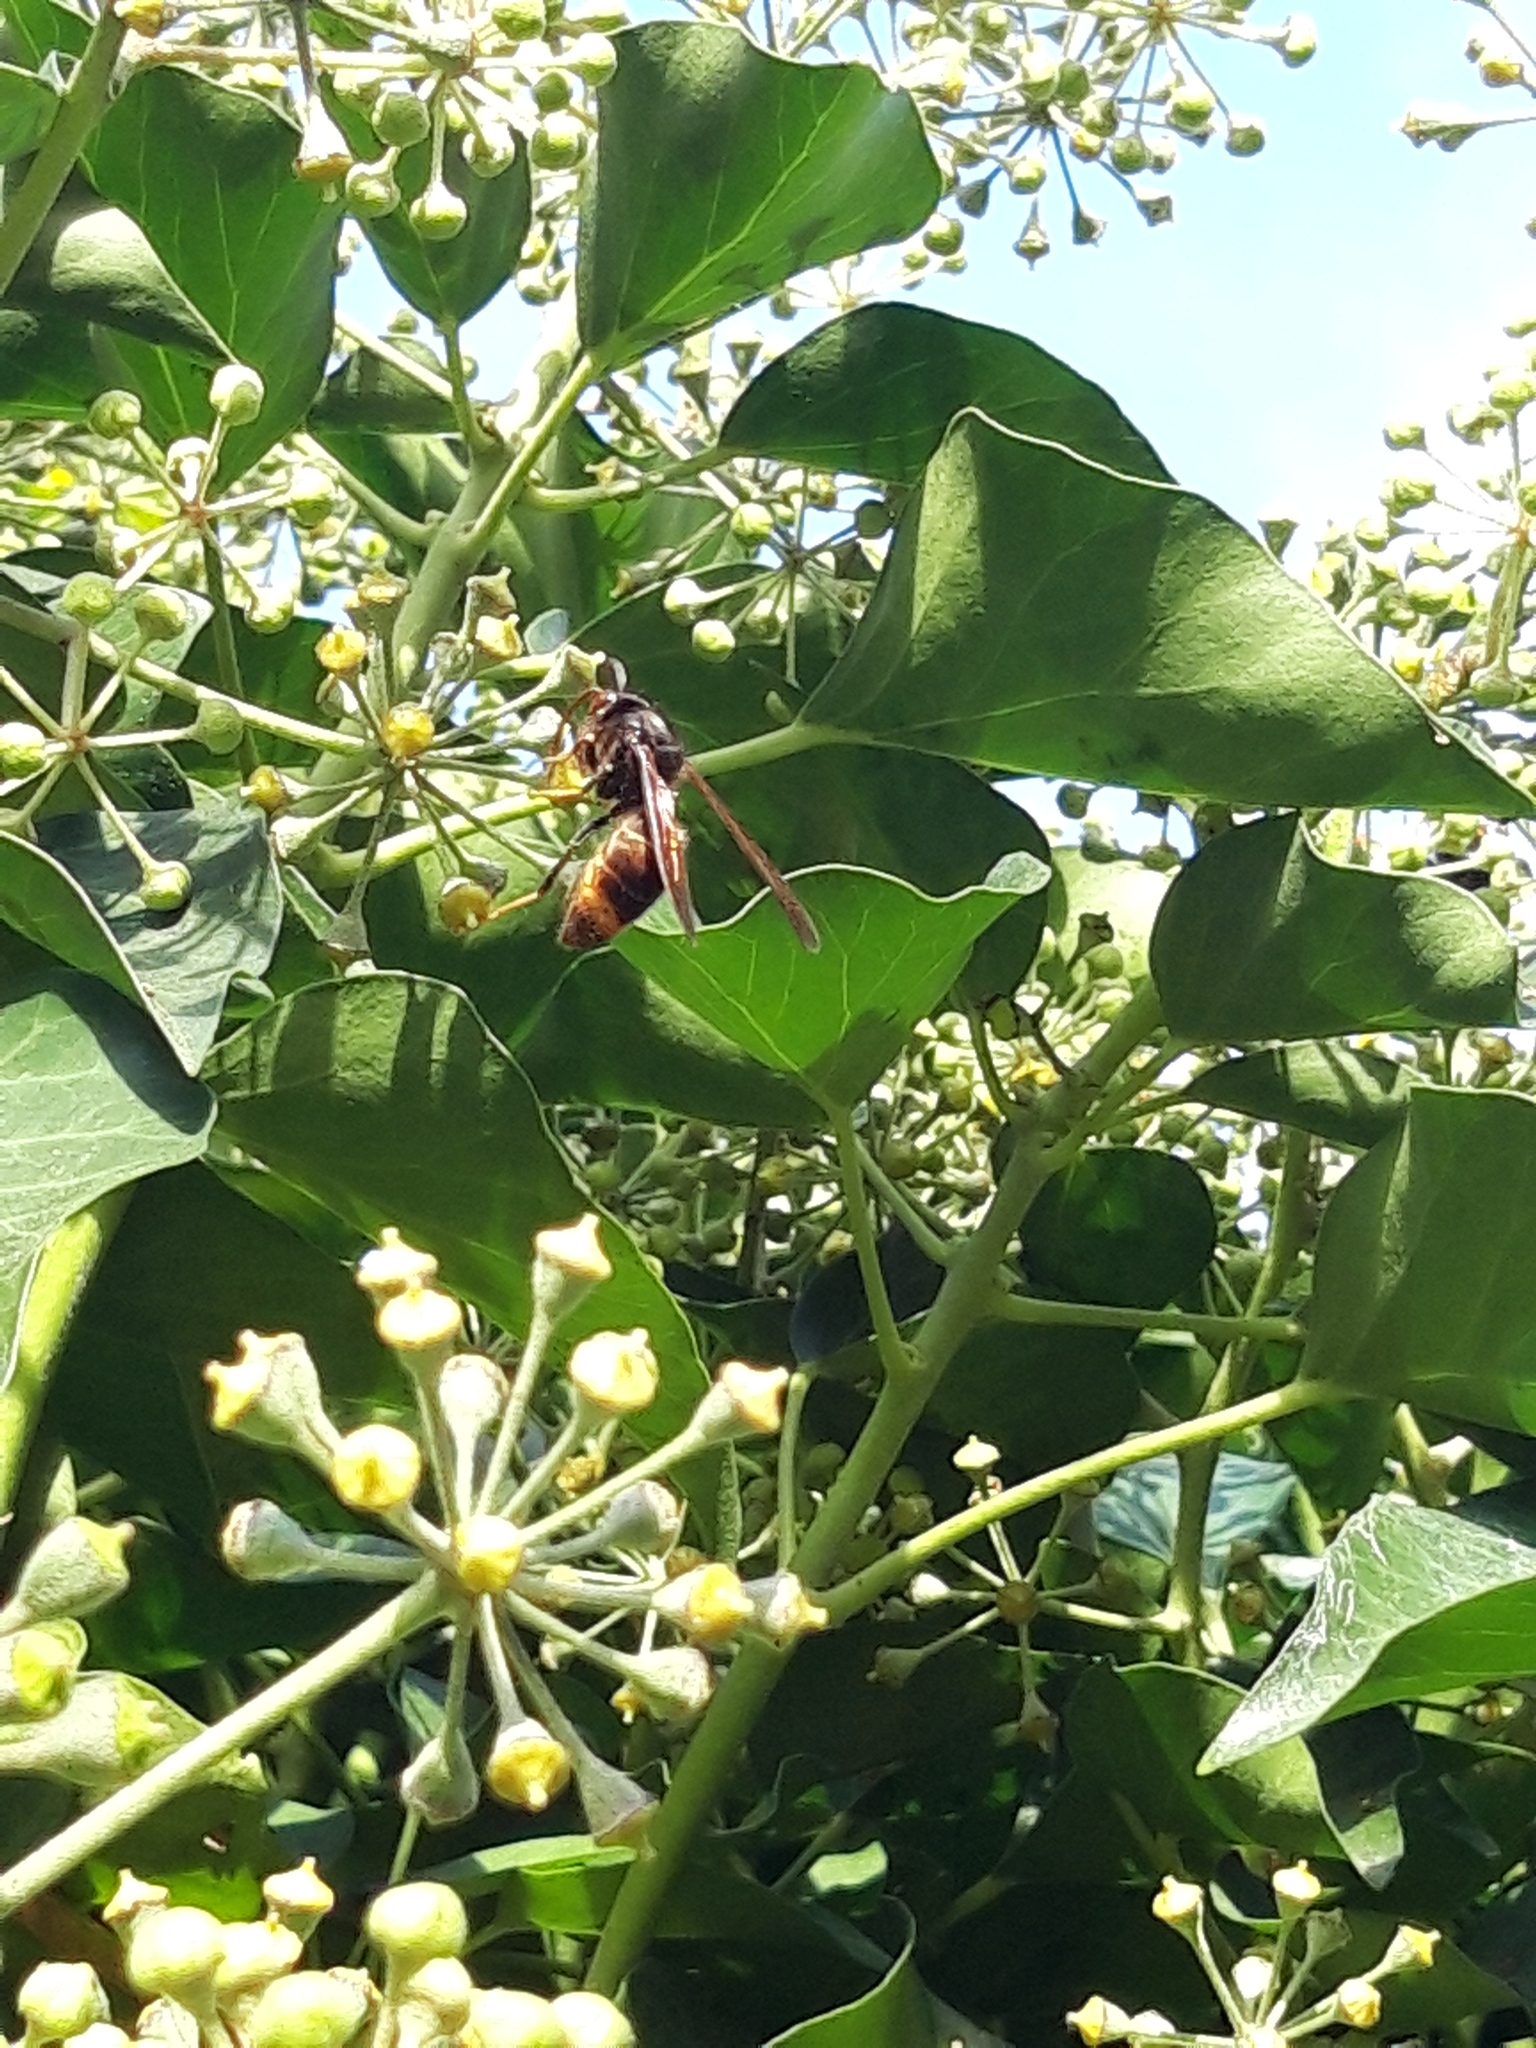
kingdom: Animalia
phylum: Arthropoda
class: Insecta
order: Hymenoptera
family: Vespidae
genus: Vespa
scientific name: Vespa velutina
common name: Asian hornet
